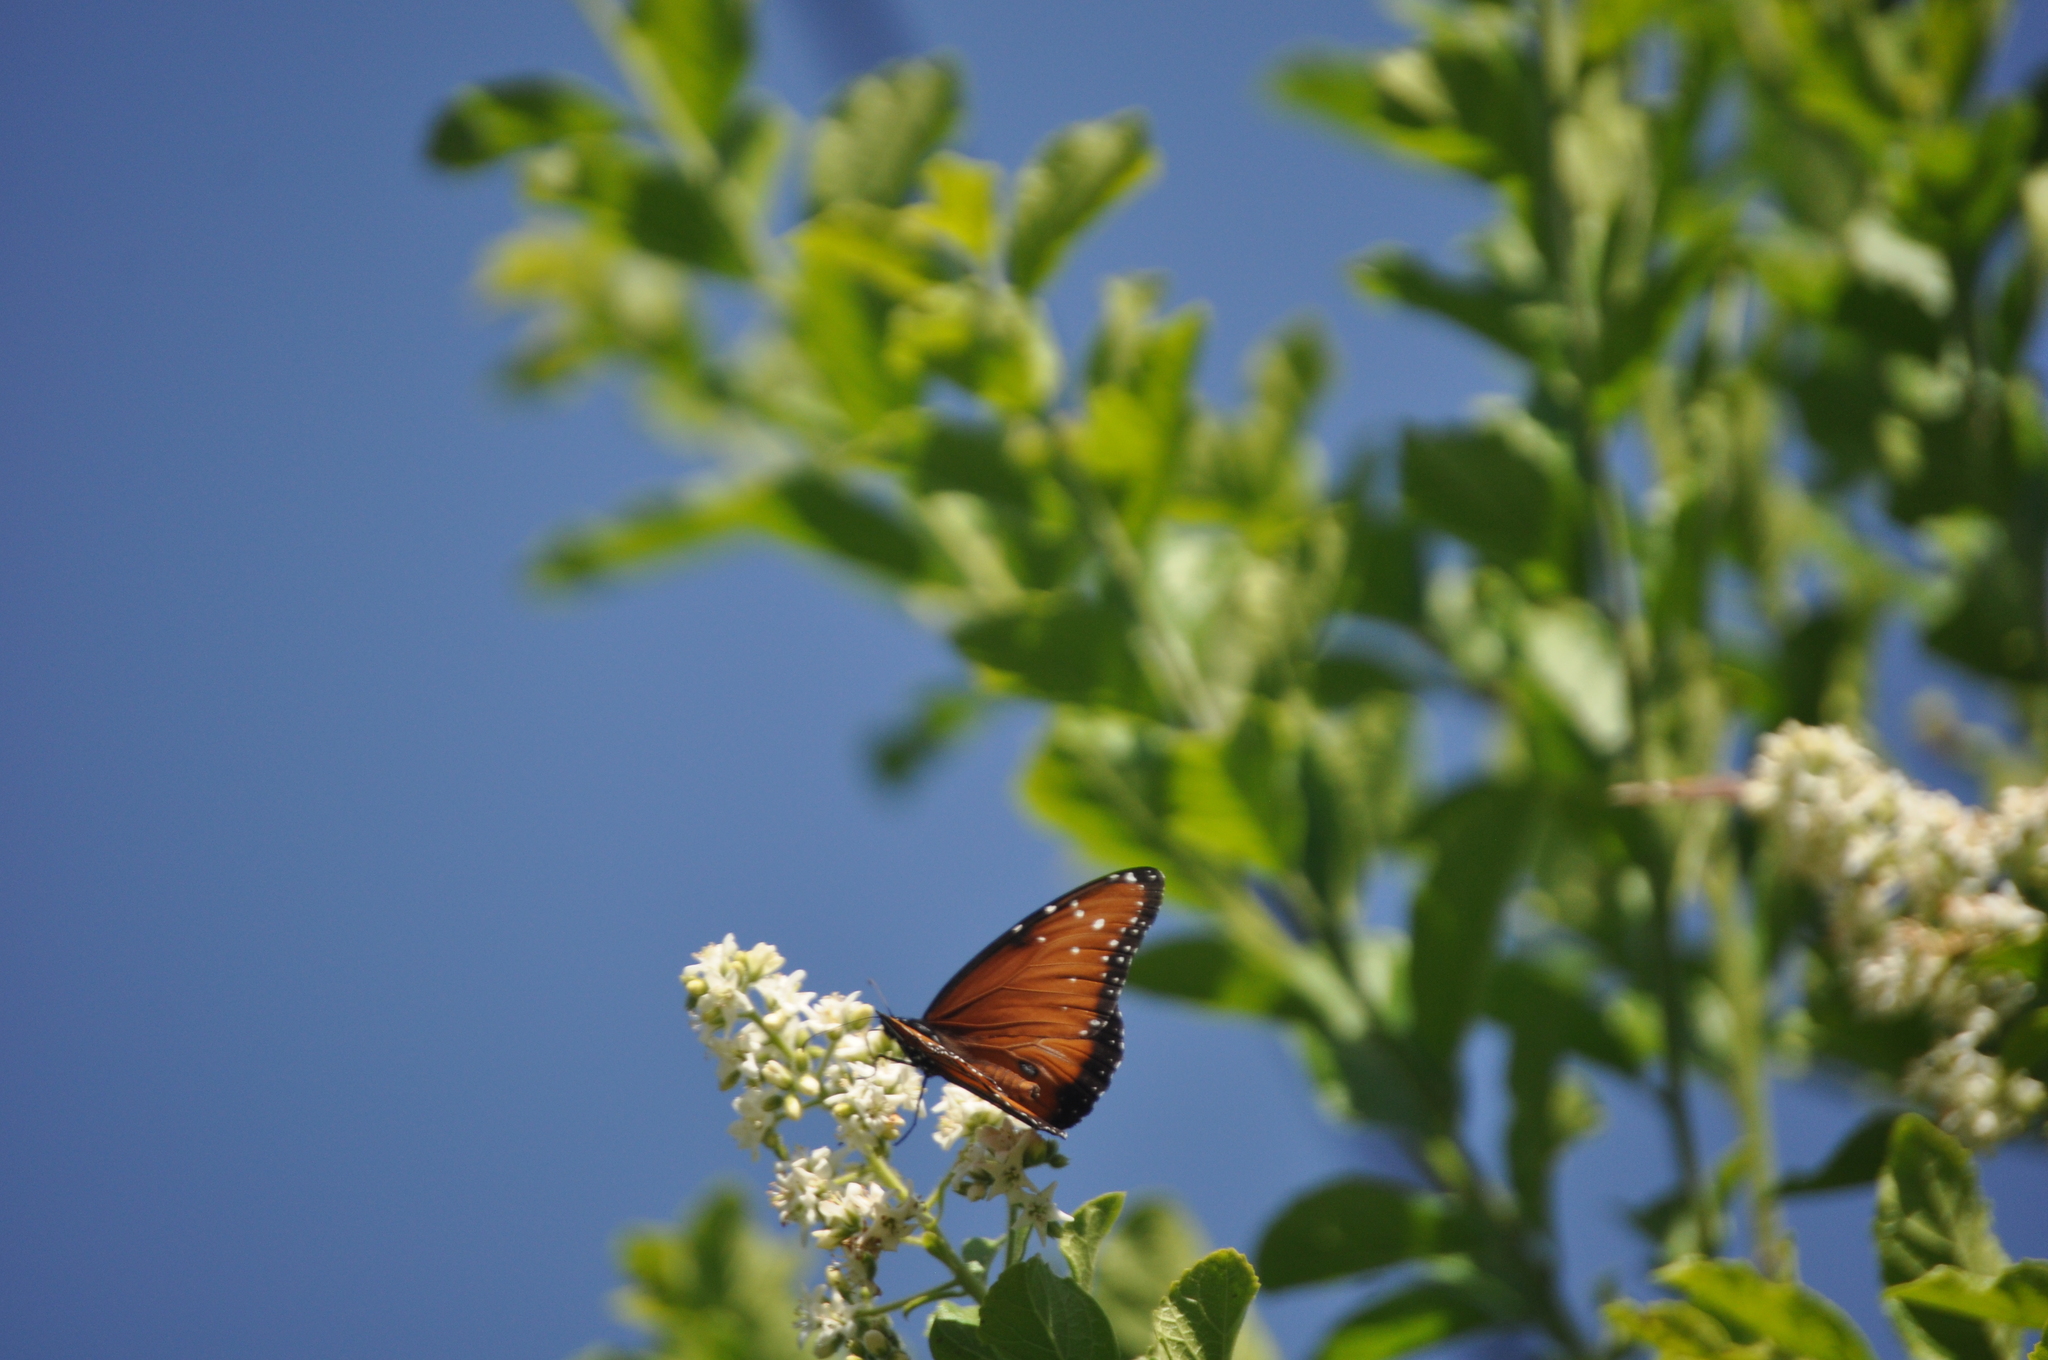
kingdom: Animalia
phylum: Arthropoda
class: Insecta
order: Lepidoptera
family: Nymphalidae
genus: Danaus
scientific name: Danaus gilippus
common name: Queen
